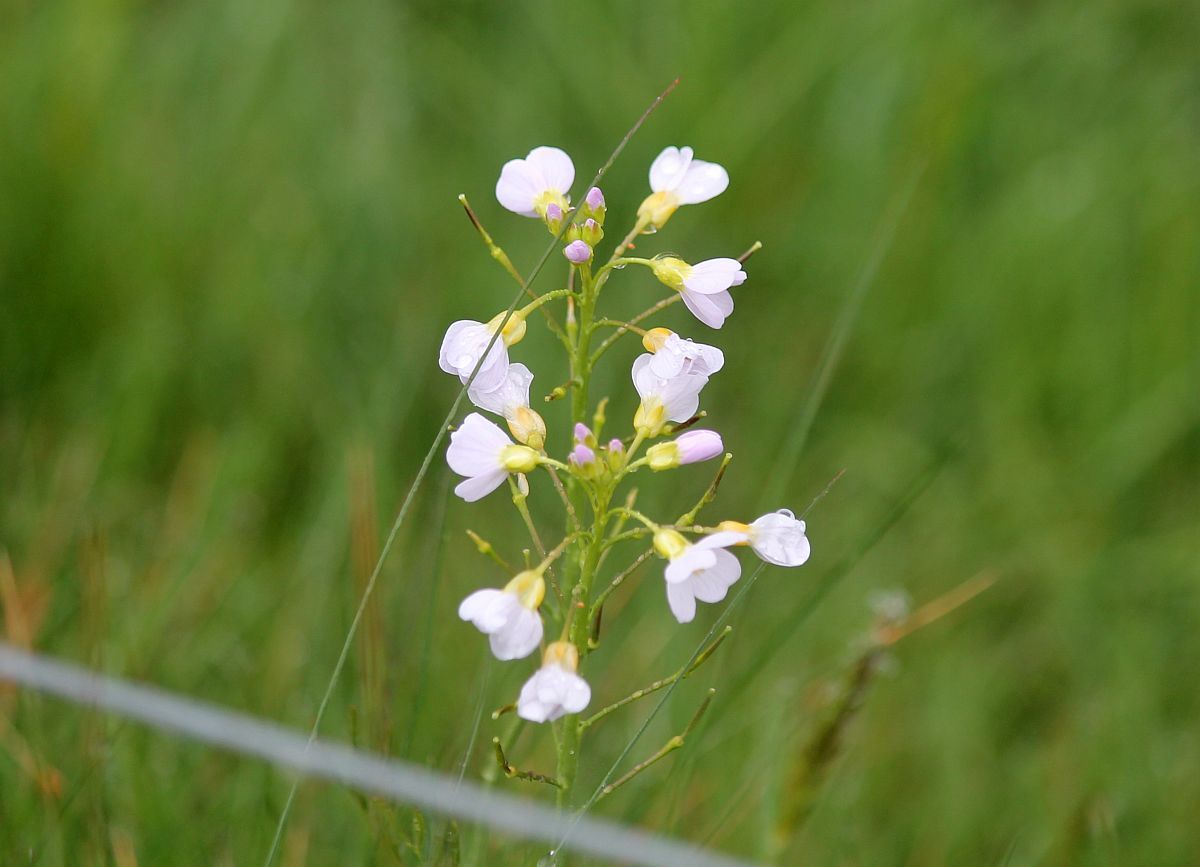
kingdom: Plantae
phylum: Tracheophyta
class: Magnoliopsida
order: Brassicales
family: Brassicaceae
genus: Cardamine
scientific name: Cardamine pratensis
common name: Cuckoo flower
